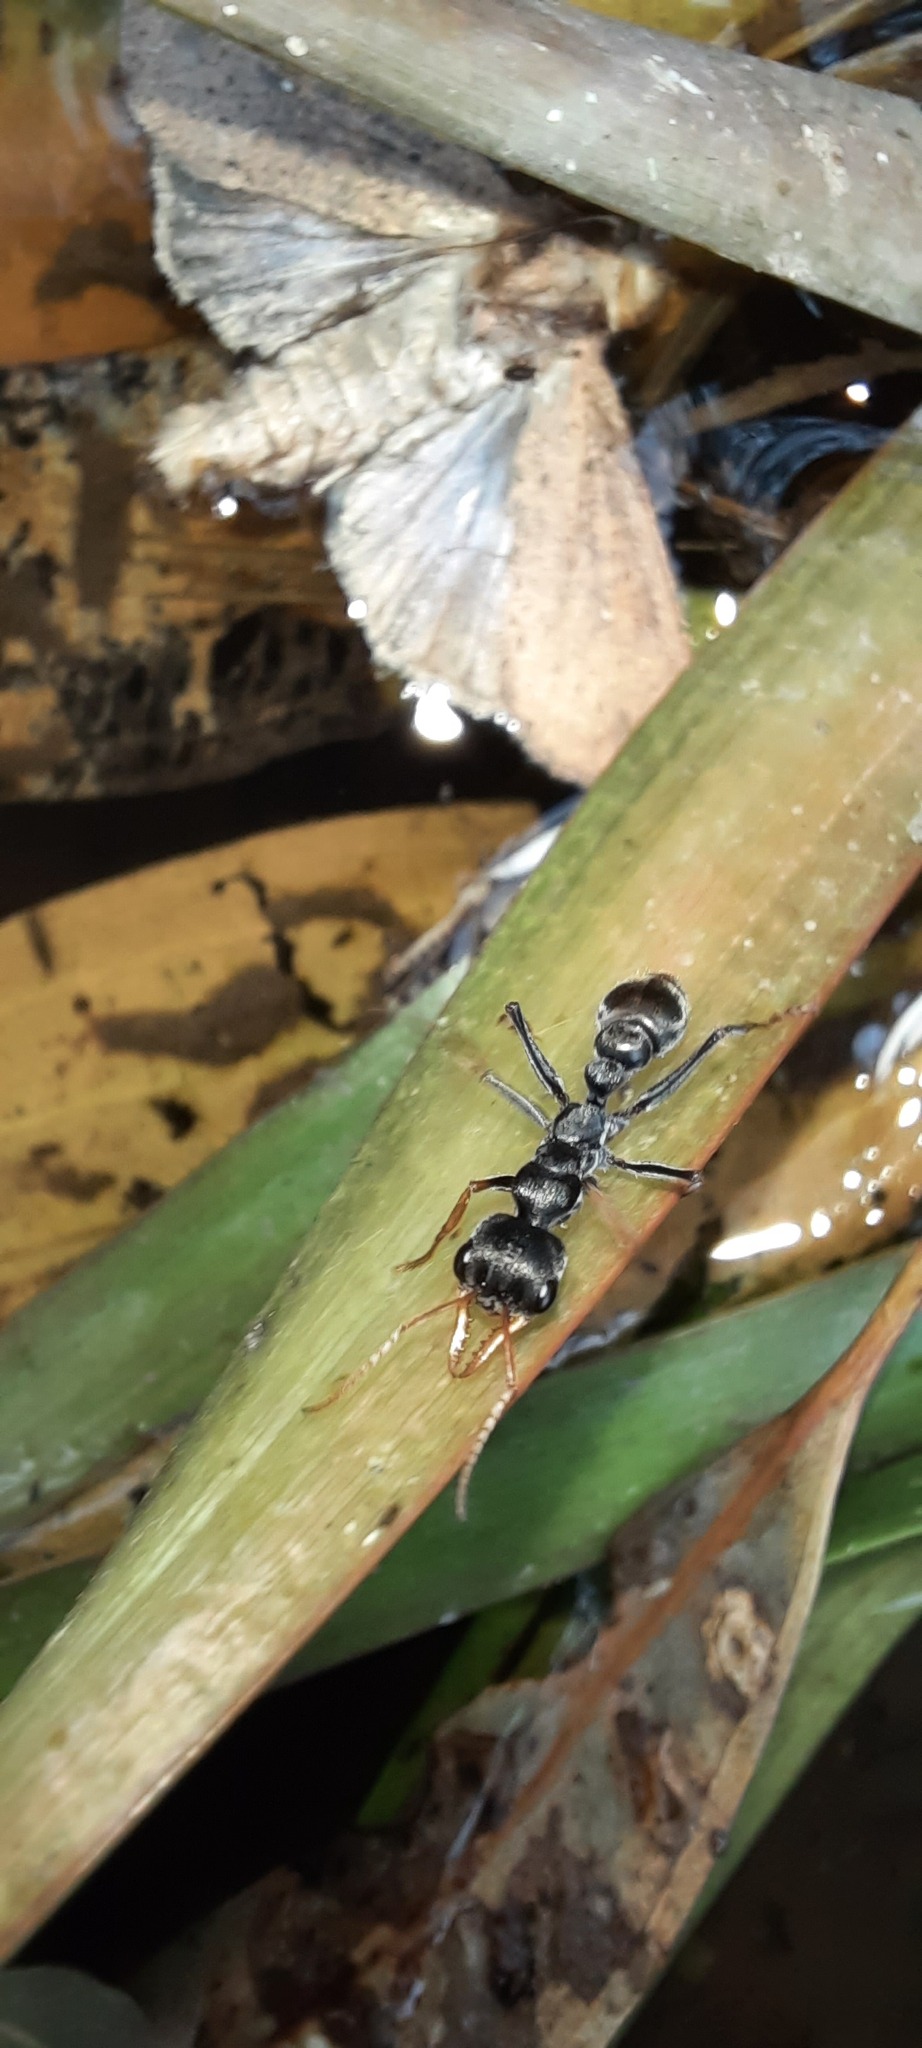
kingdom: Animalia
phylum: Arthropoda
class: Insecta
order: Hymenoptera
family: Formicidae
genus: Myrmecia
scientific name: Myrmecia pilosula
